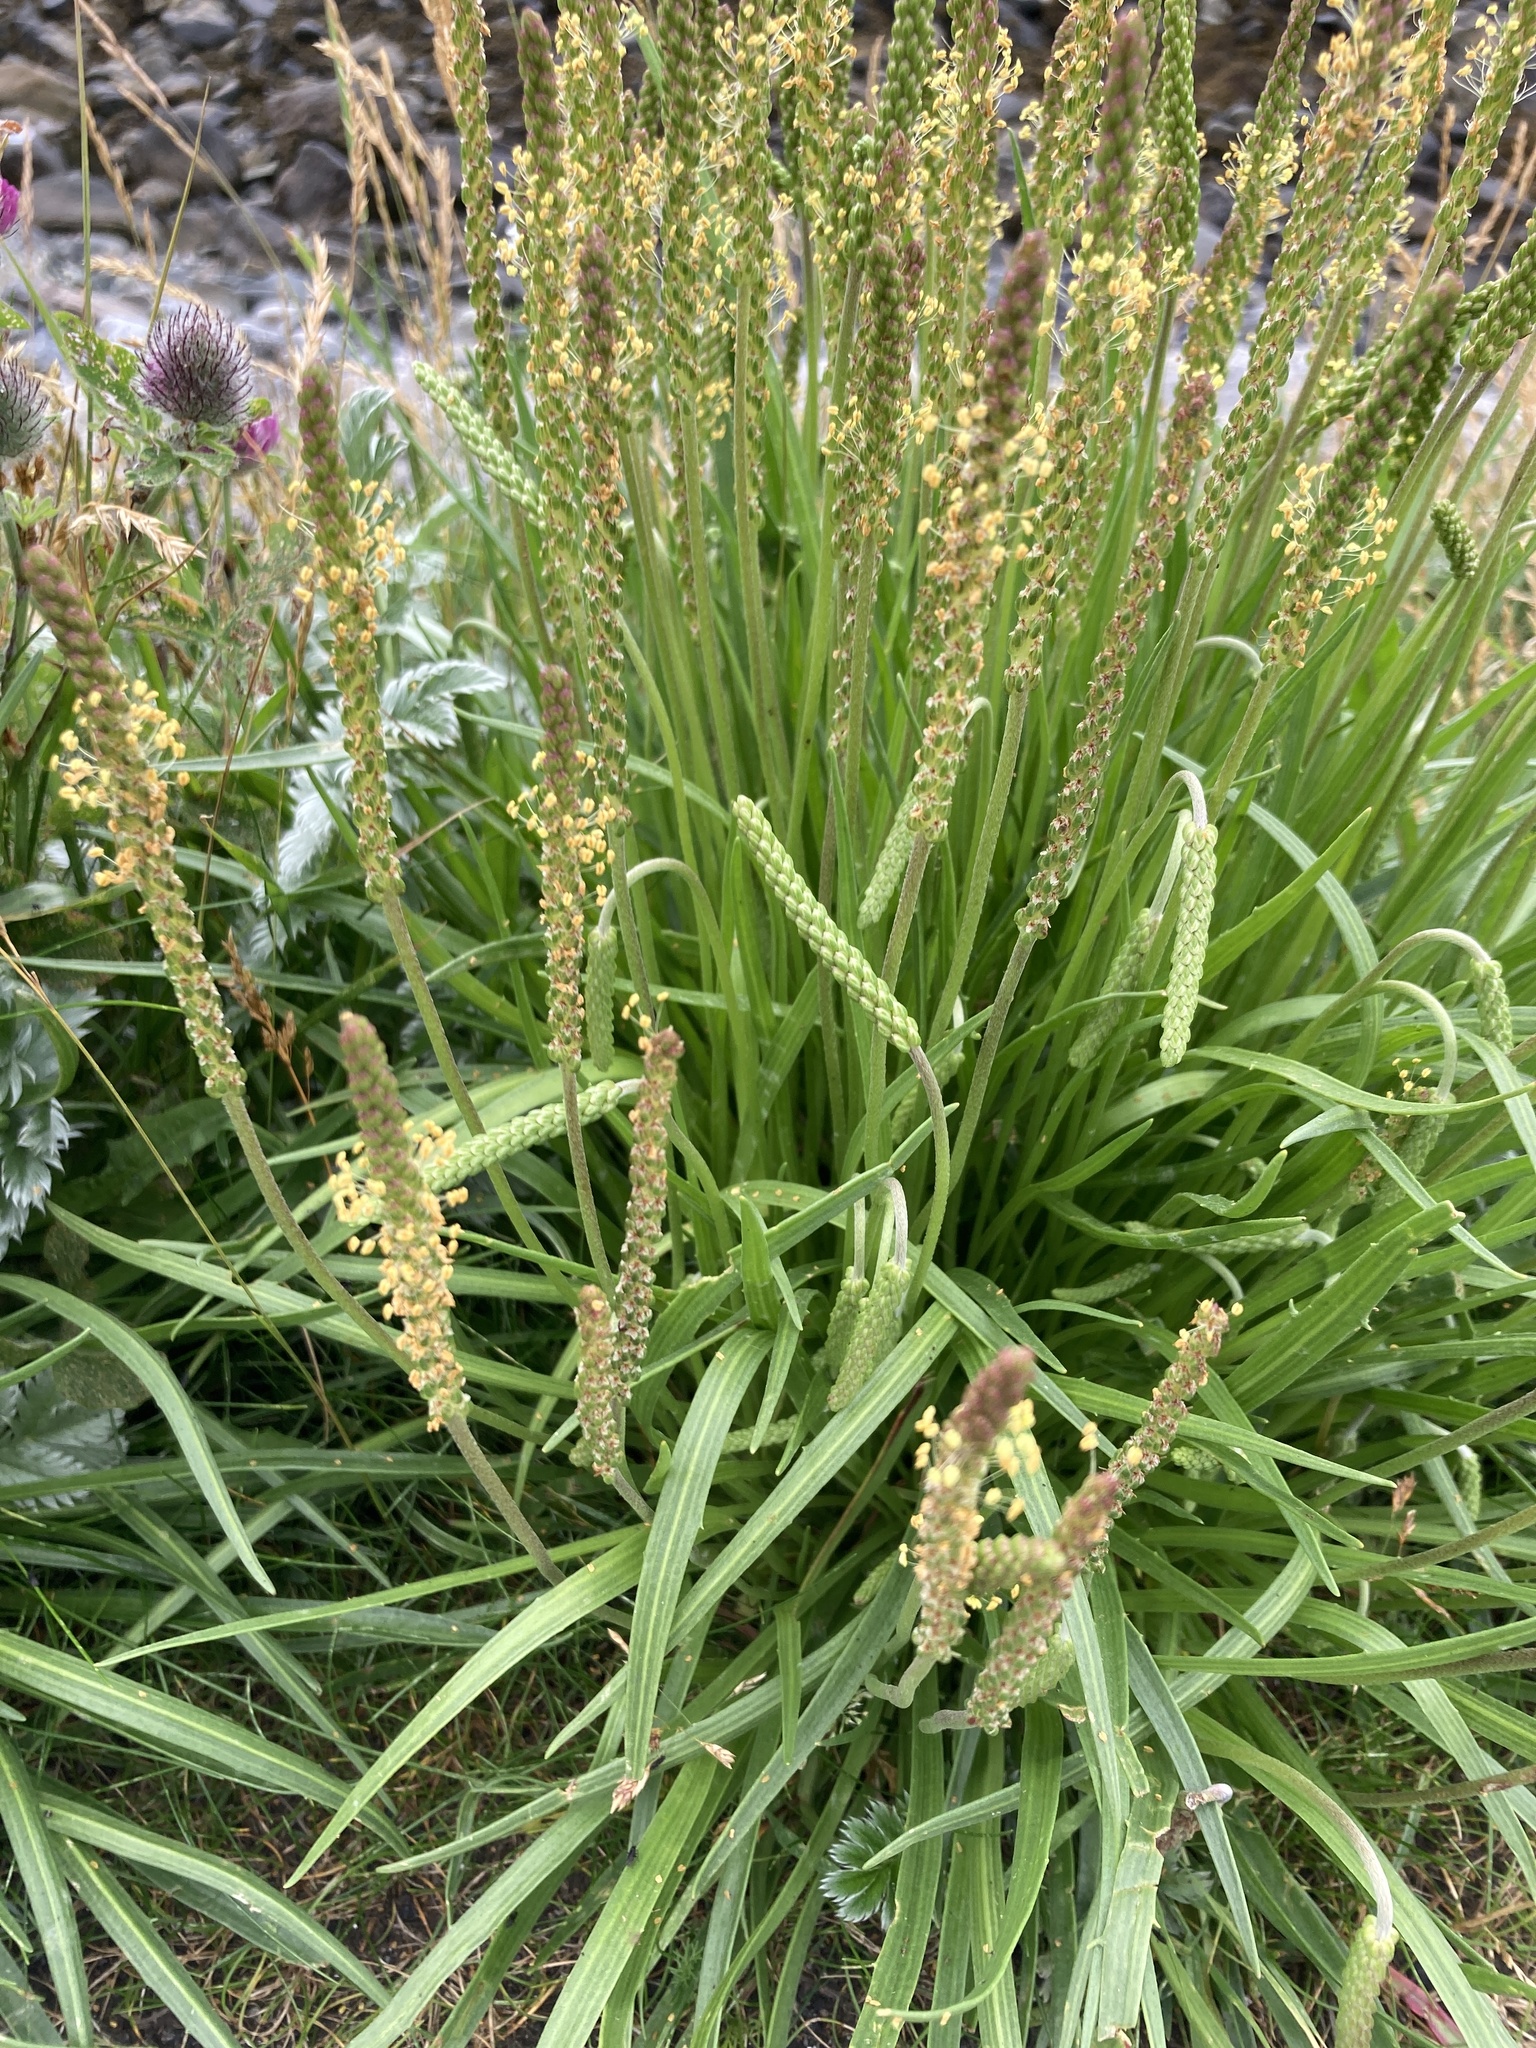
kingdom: Plantae
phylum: Tracheophyta
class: Magnoliopsida
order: Lamiales
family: Plantaginaceae
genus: Plantago
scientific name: Plantago maritima
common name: Sea plantain
